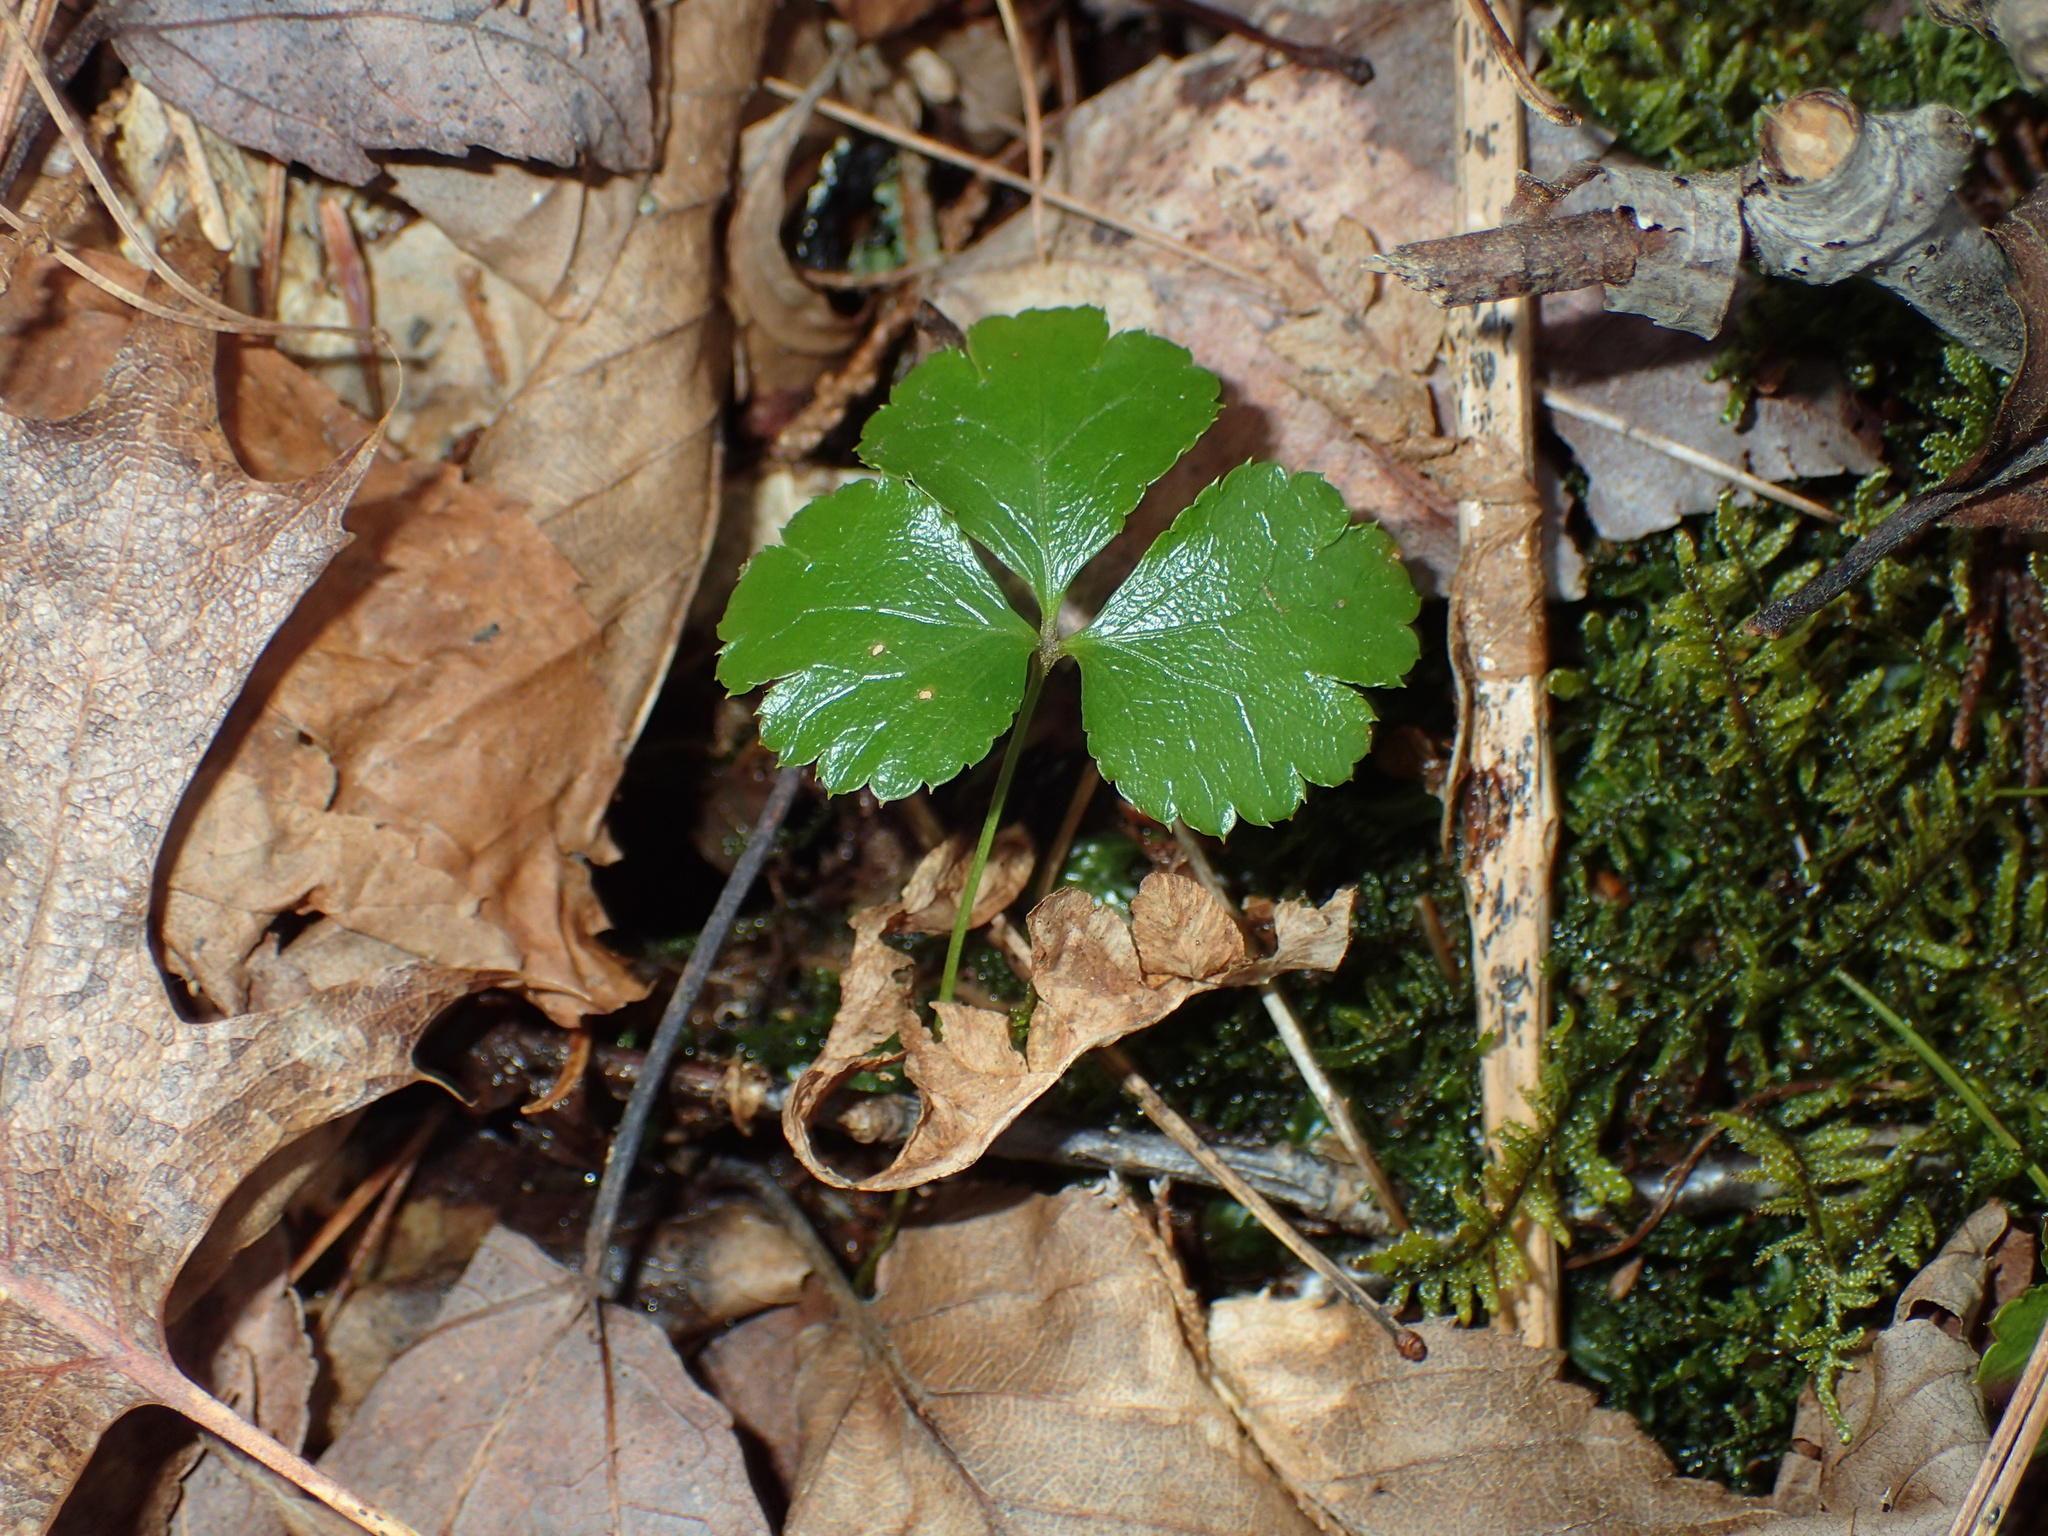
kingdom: Plantae
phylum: Tracheophyta
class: Magnoliopsida
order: Ranunculales
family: Ranunculaceae
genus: Coptis
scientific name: Coptis trifolia
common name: Canker-root
